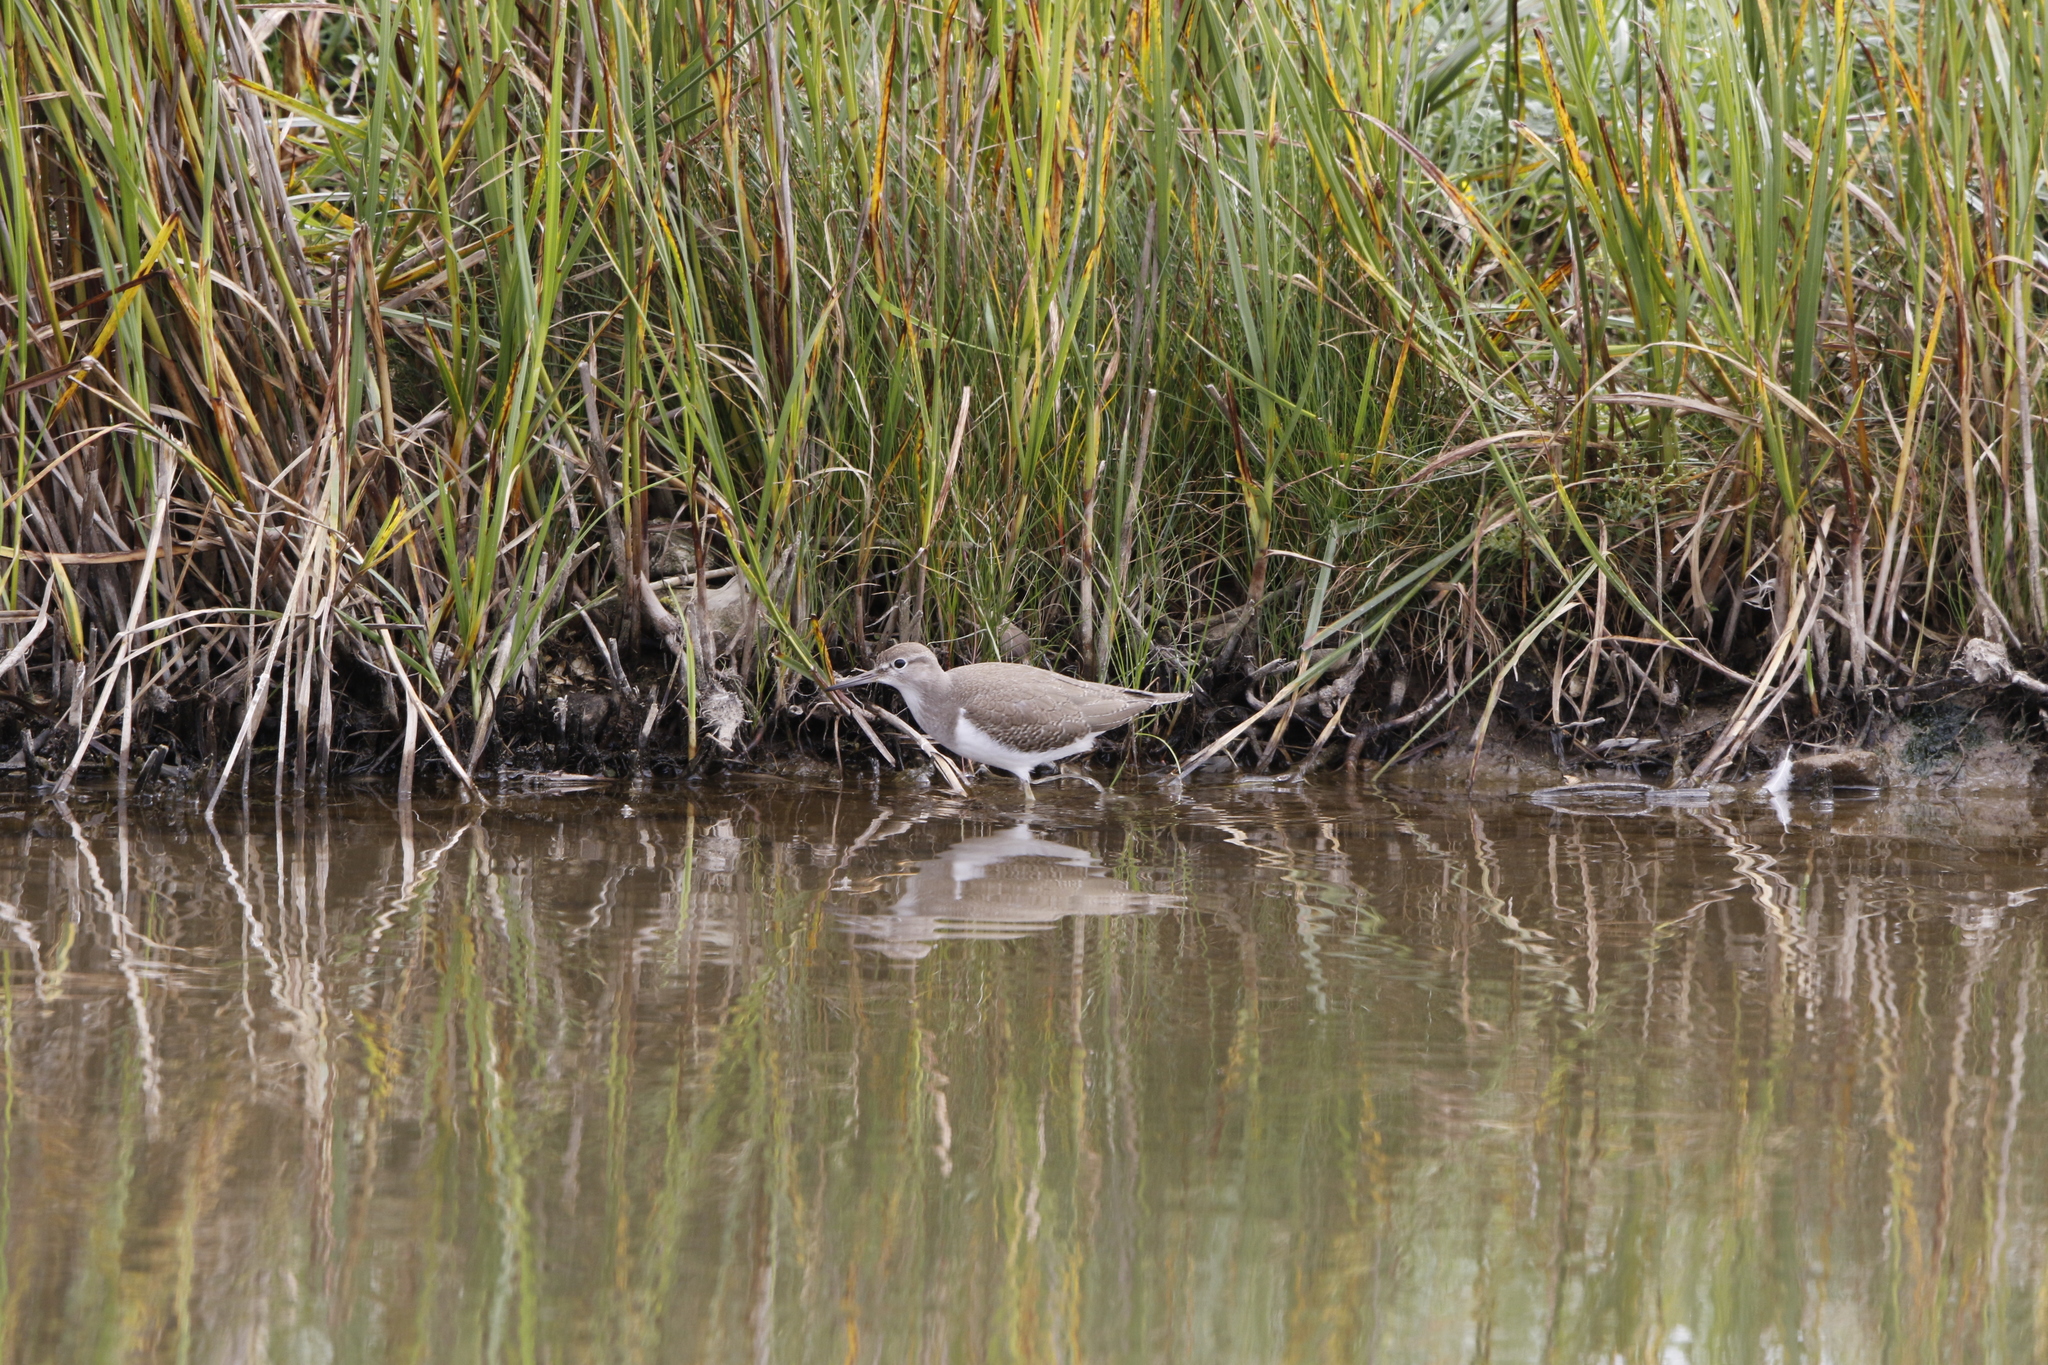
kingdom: Animalia
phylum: Chordata
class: Aves
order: Charadriiformes
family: Scolopacidae
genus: Actitis
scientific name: Actitis hypoleucos
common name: Common sandpiper
